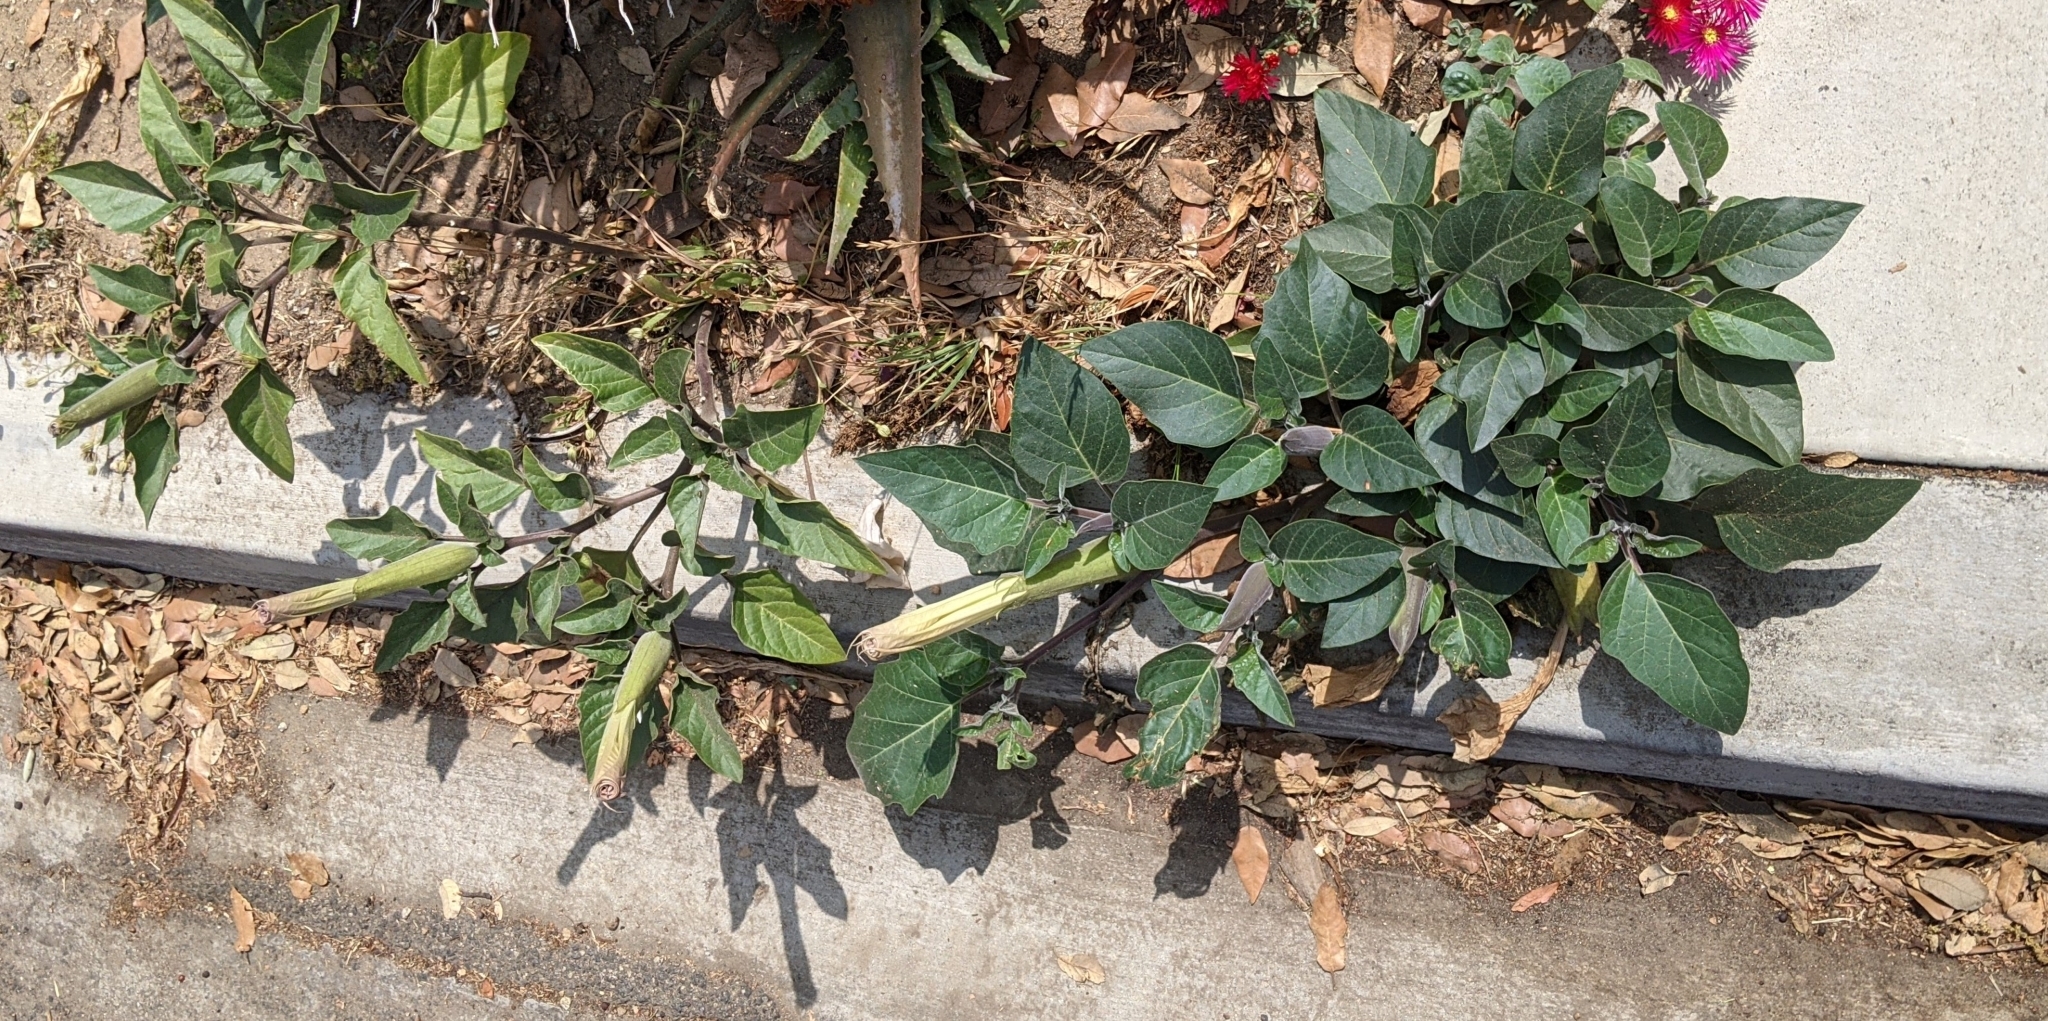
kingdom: Plantae
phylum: Tracheophyta
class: Magnoliopsida
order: Solanales
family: Solanaceae
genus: Datura
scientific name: Datura wrightii
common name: Sacred thorn-apple
